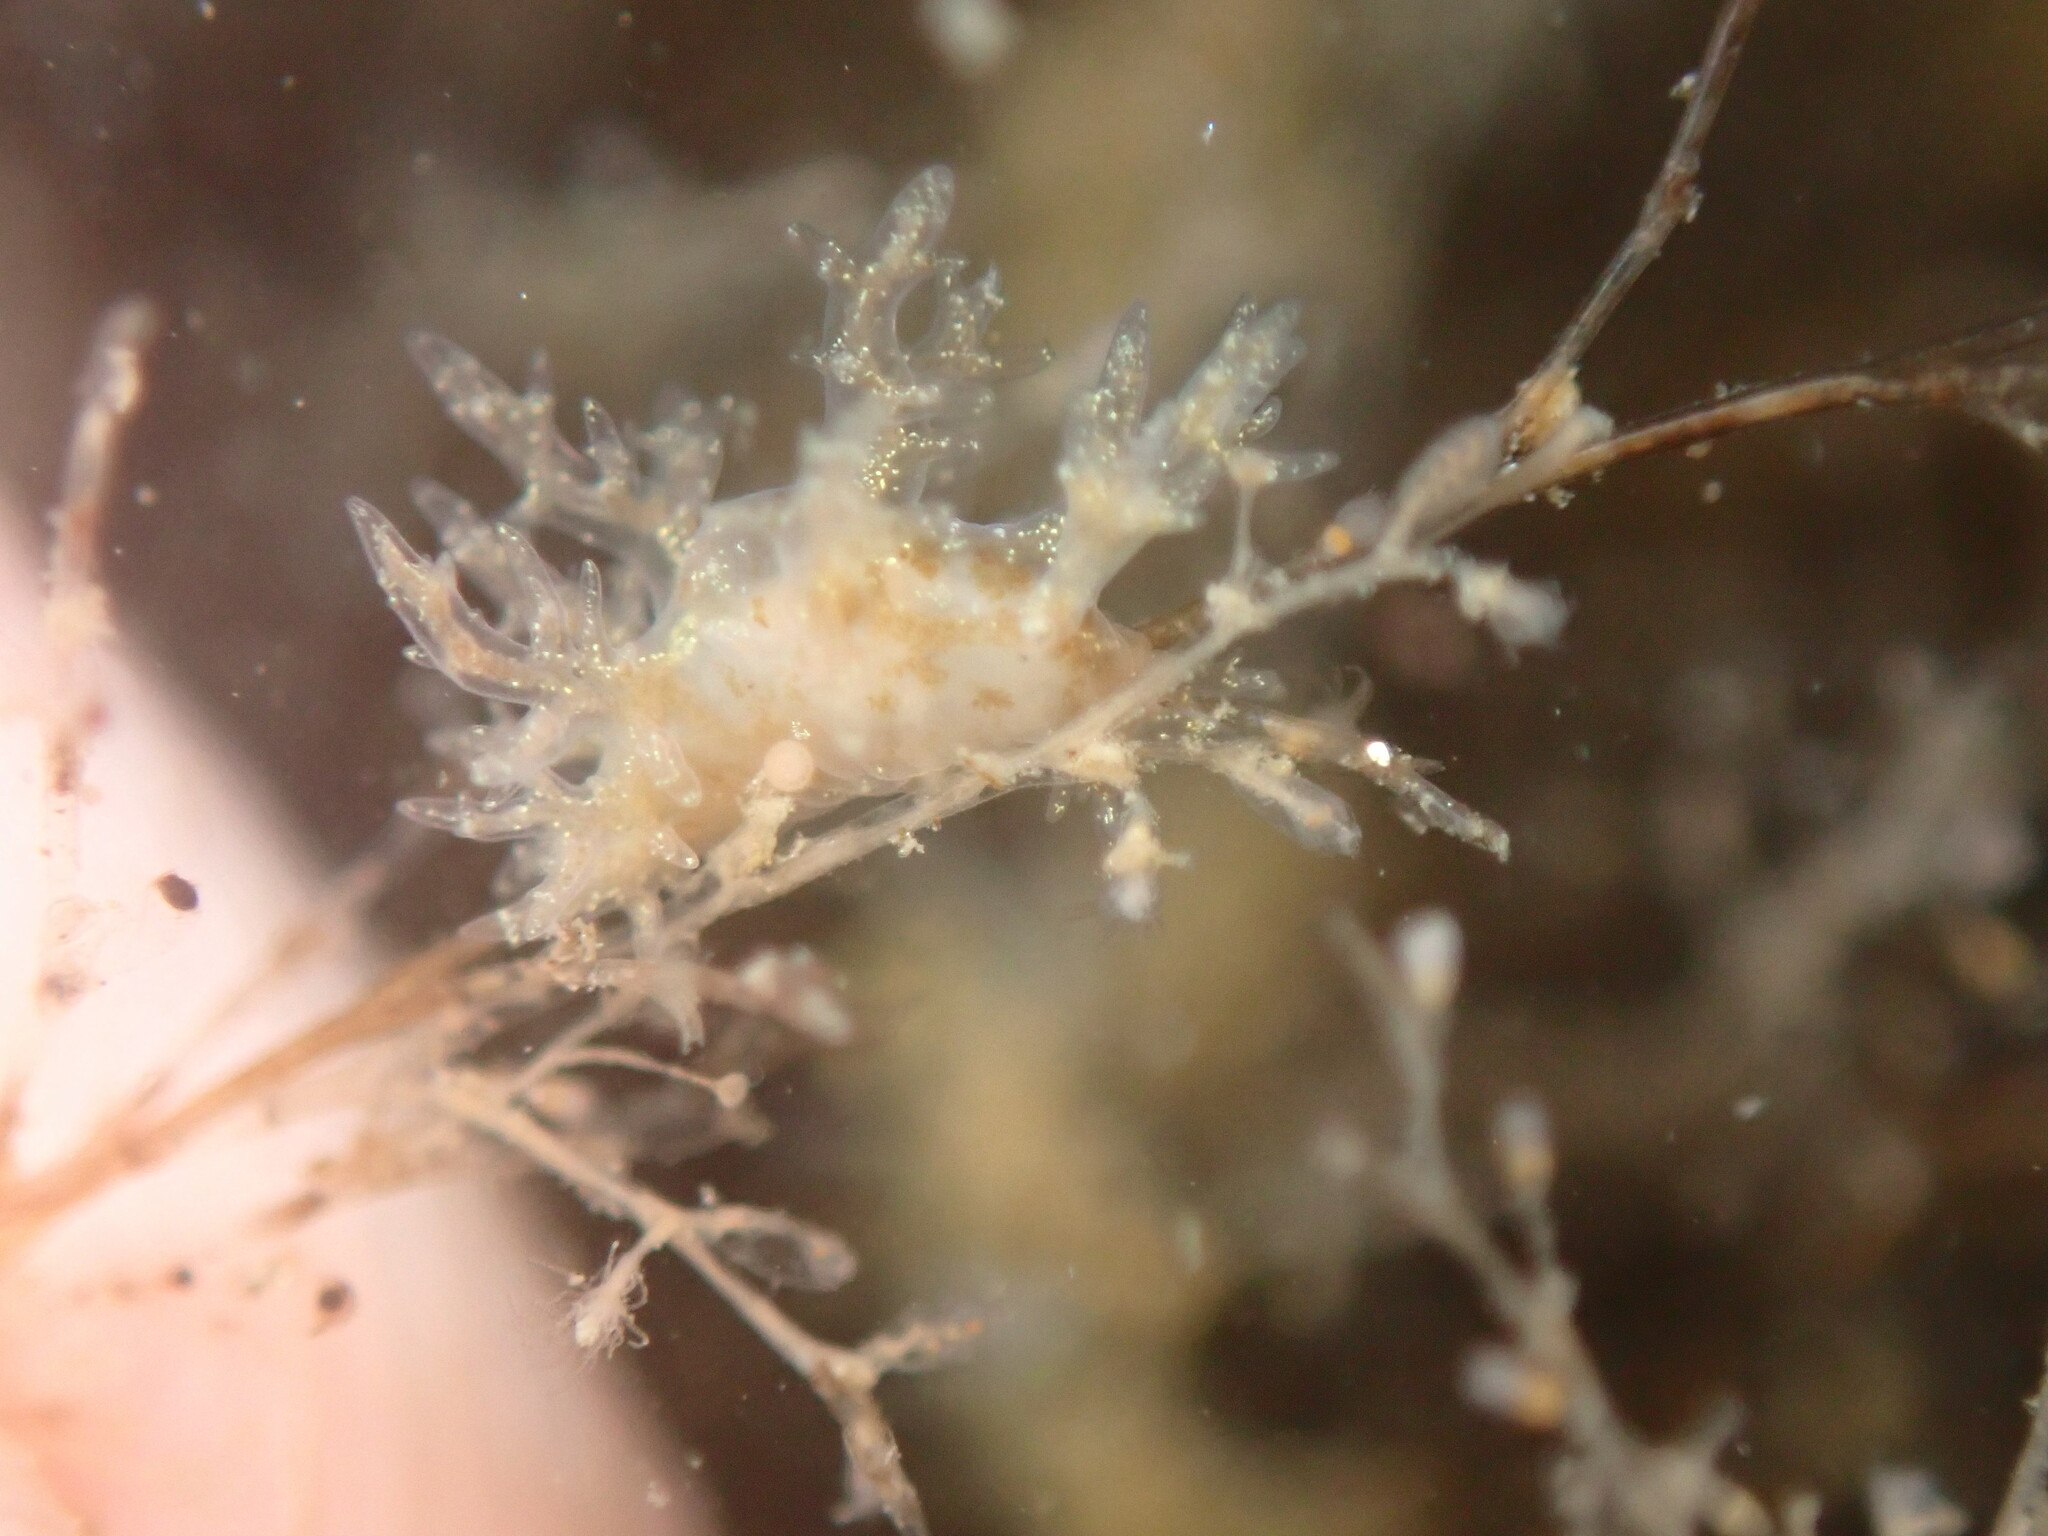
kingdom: Animalia
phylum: Mollusca
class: Gastropoda
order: Nudibranchia
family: Dendronotidae
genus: Dendronotus
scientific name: Dendronotus venustus
